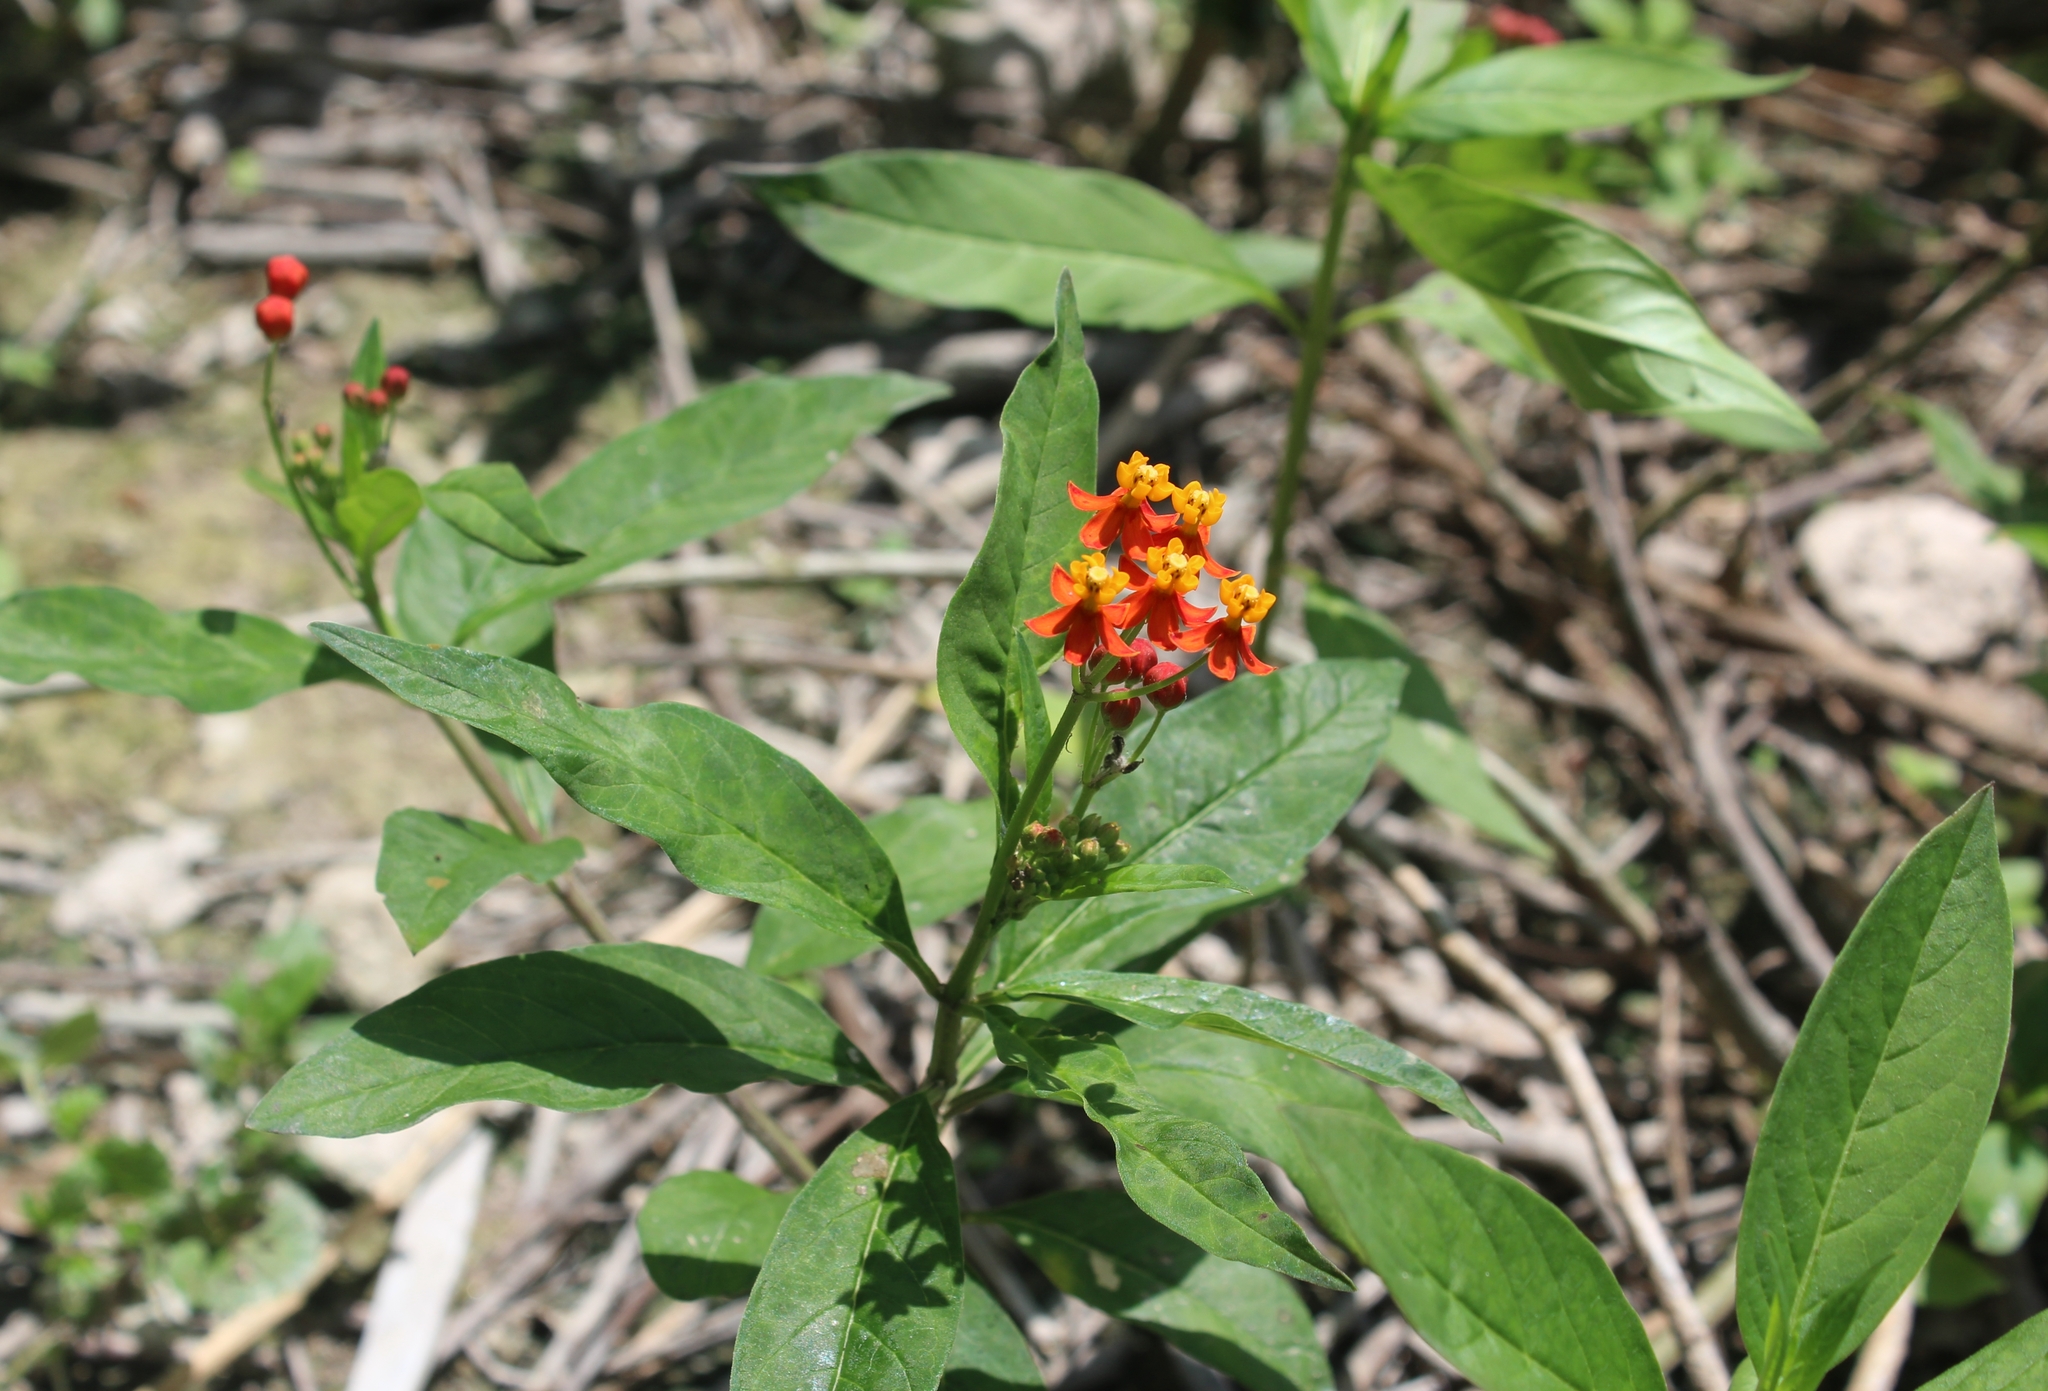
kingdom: Plantae
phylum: Tracheophyta
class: Magnoliopsida
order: Gentianales
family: Apocynaceae
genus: Asclepias
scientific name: Asclepias curassavica
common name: Bloodflower
